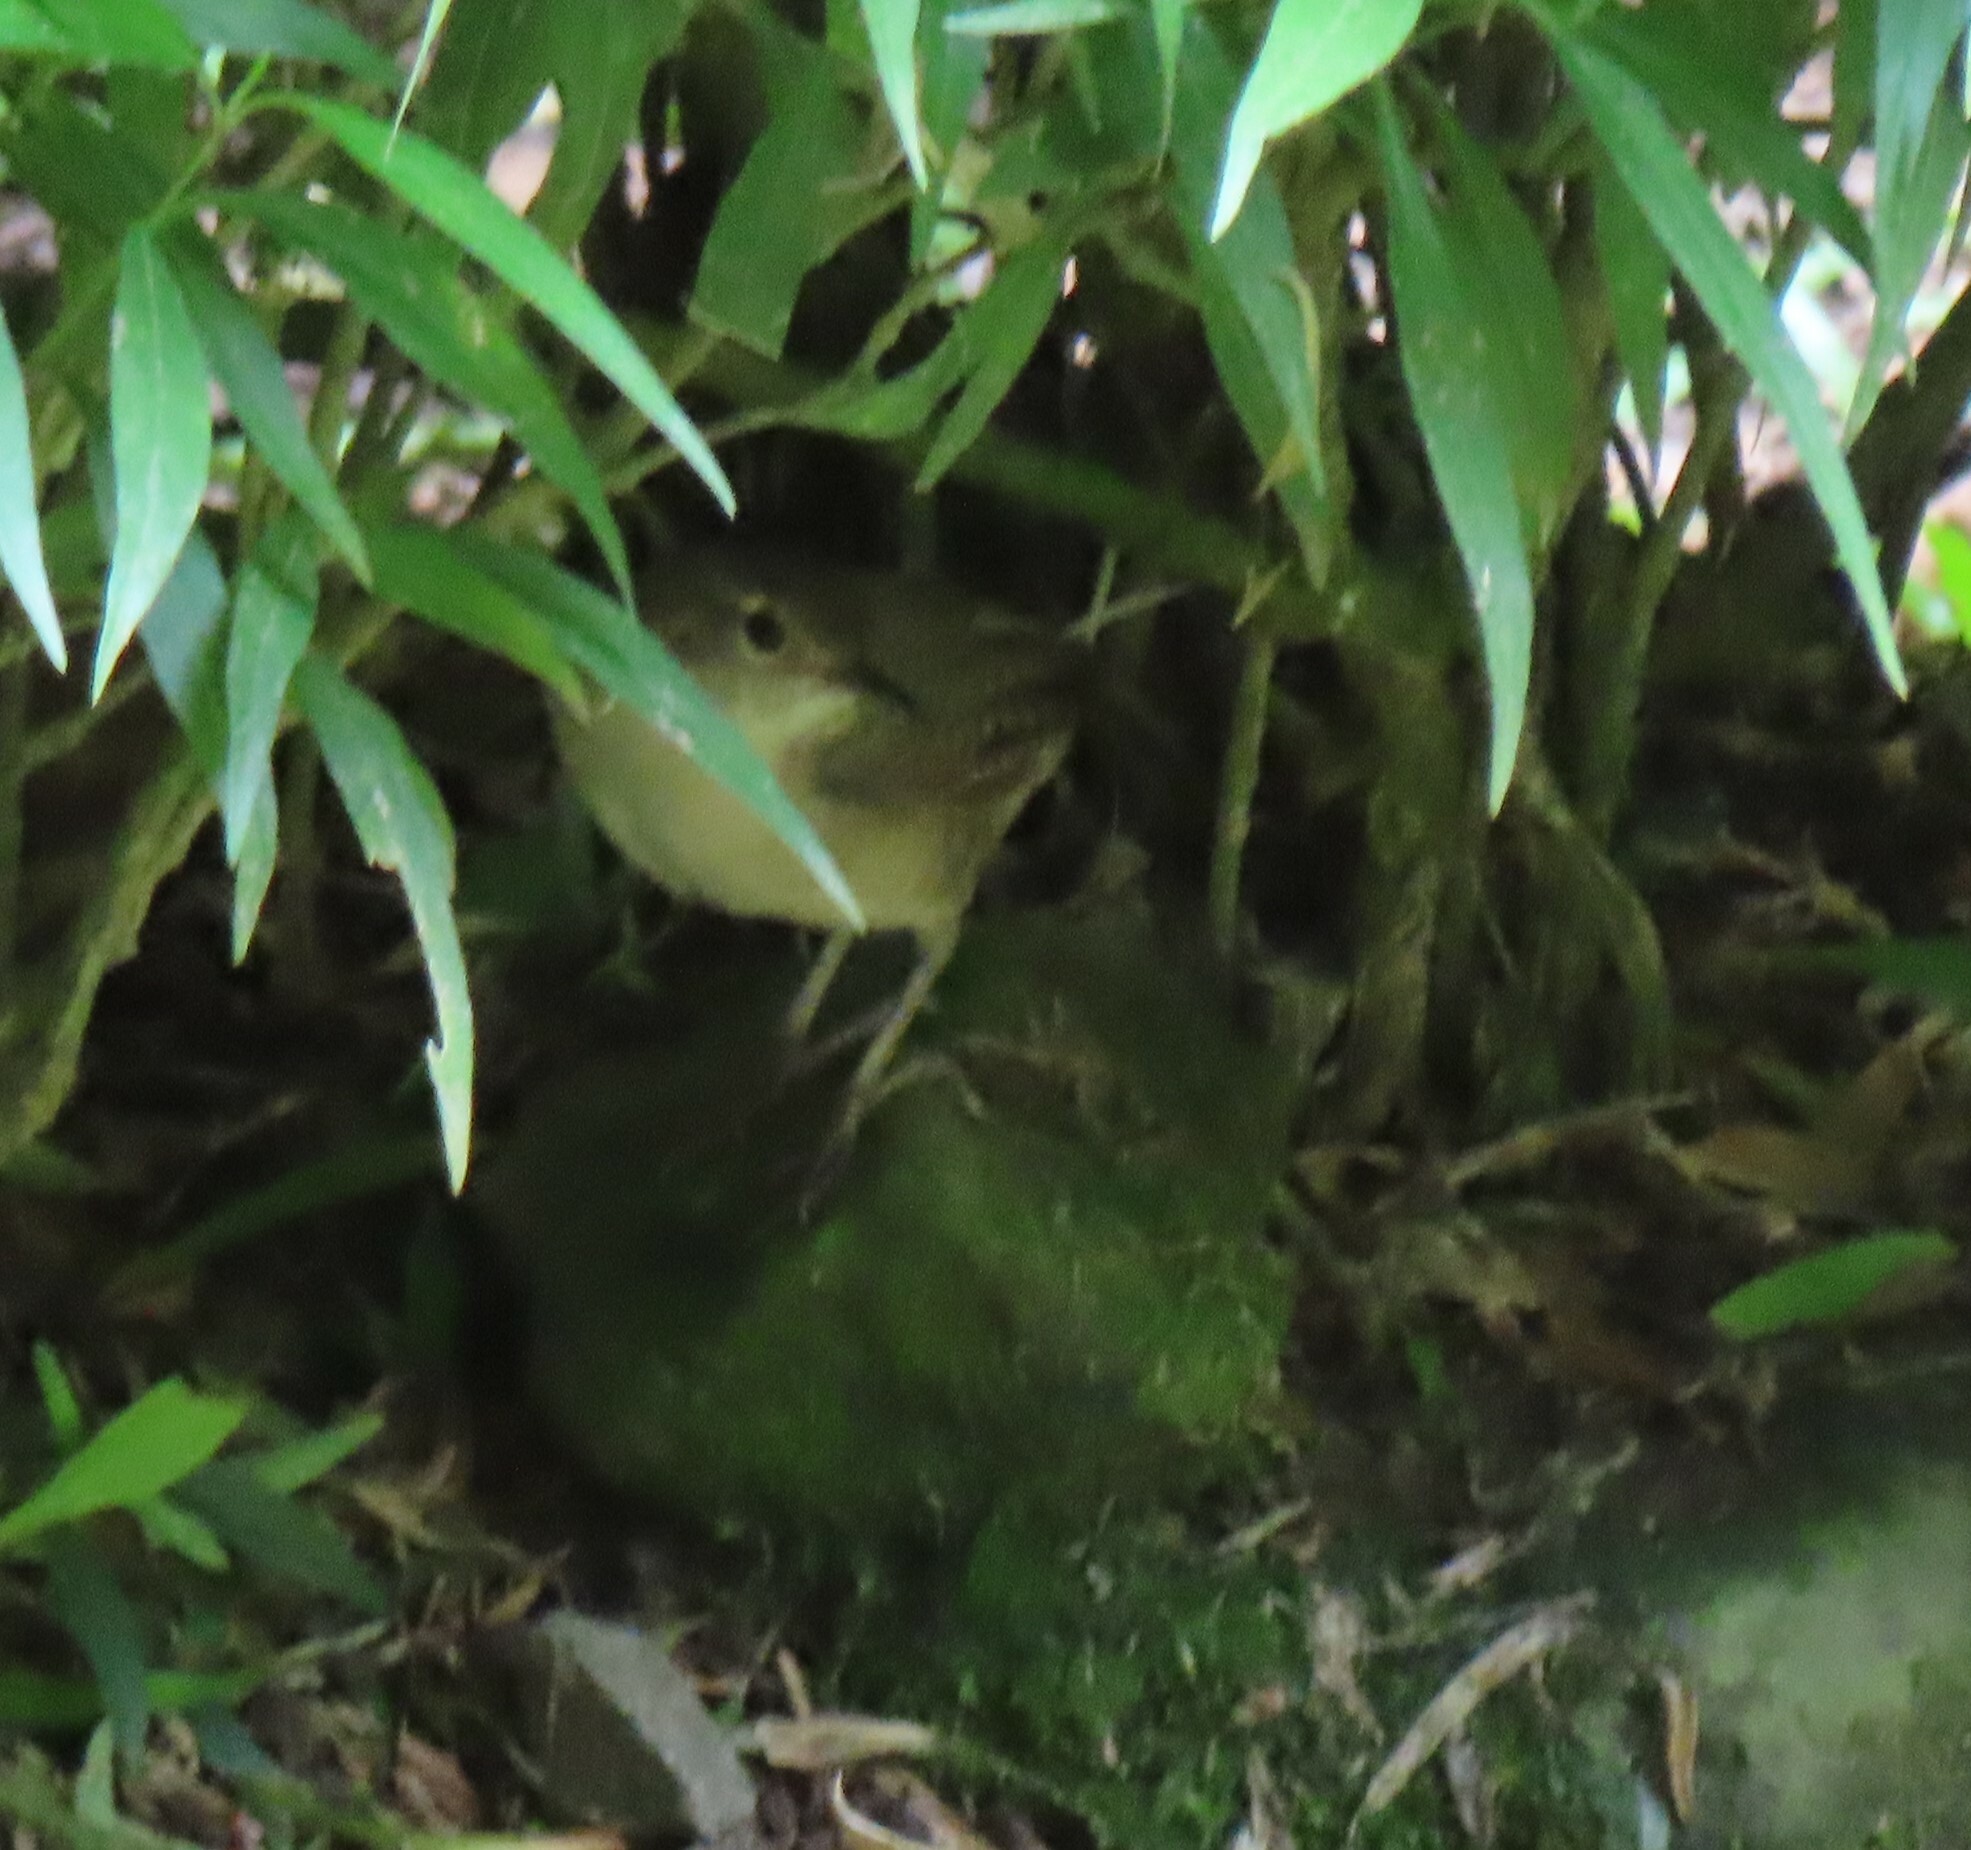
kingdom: Animalia
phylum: Chordata
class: Aves
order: Passeriformes
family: Troglodytidae
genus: Troglodytes
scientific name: Troglodytes aedon
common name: House wren
